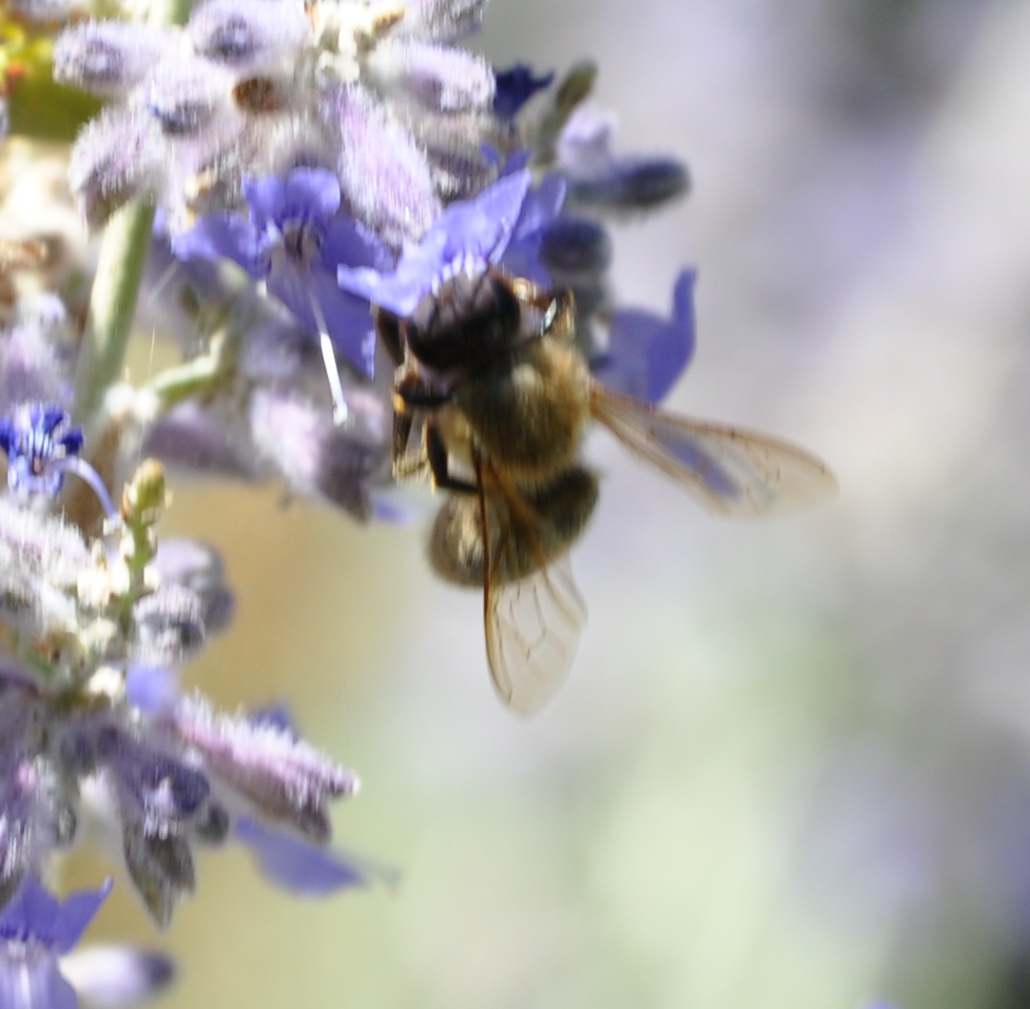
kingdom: Animalia
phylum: Arthropoda
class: Insecta
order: Hymenoptera
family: Apidae
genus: Apis
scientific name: Apis mellifera
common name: Honey bee
